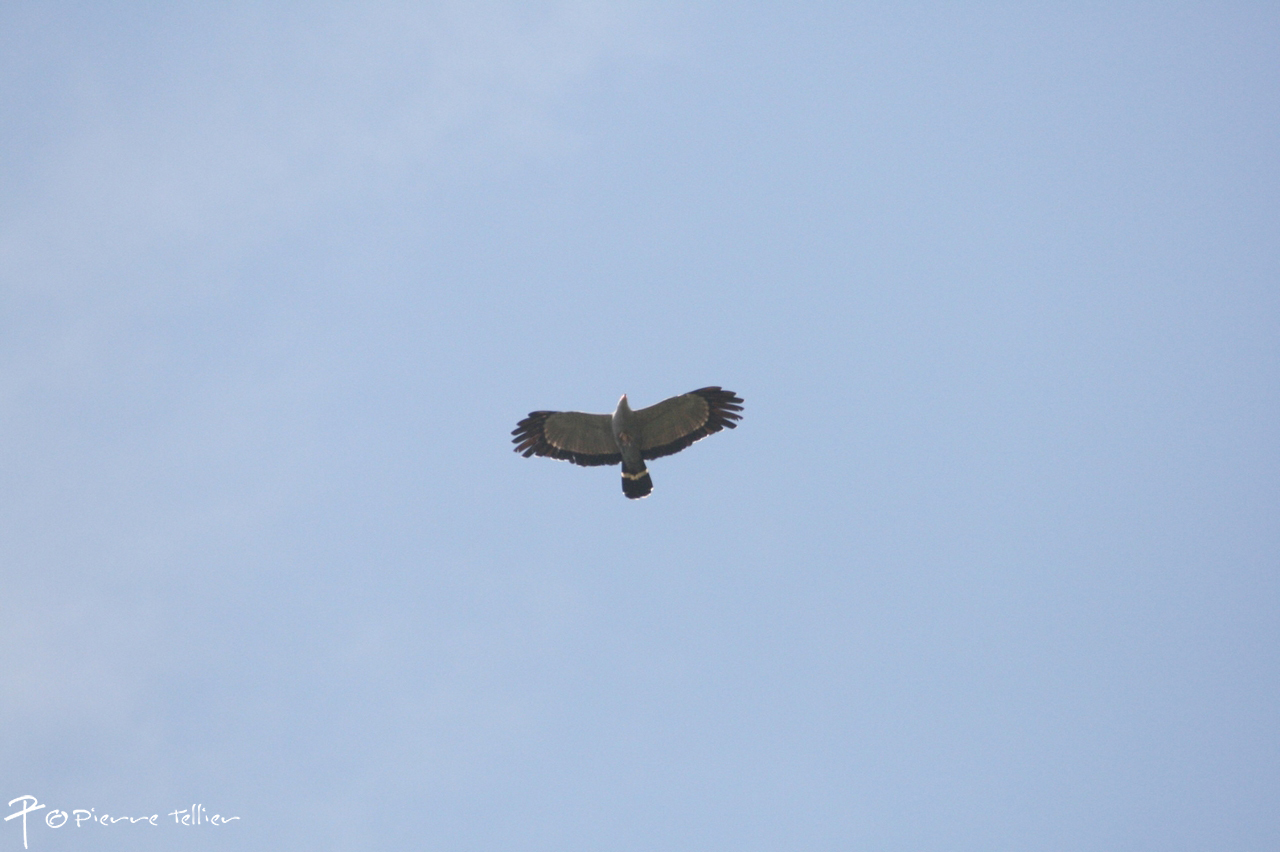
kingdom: Animalia
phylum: Chordata
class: Aves
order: Accipitriformes
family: Accipitridae
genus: Polyboroides
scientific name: Polyboroides typus
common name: African harrier-hawk
